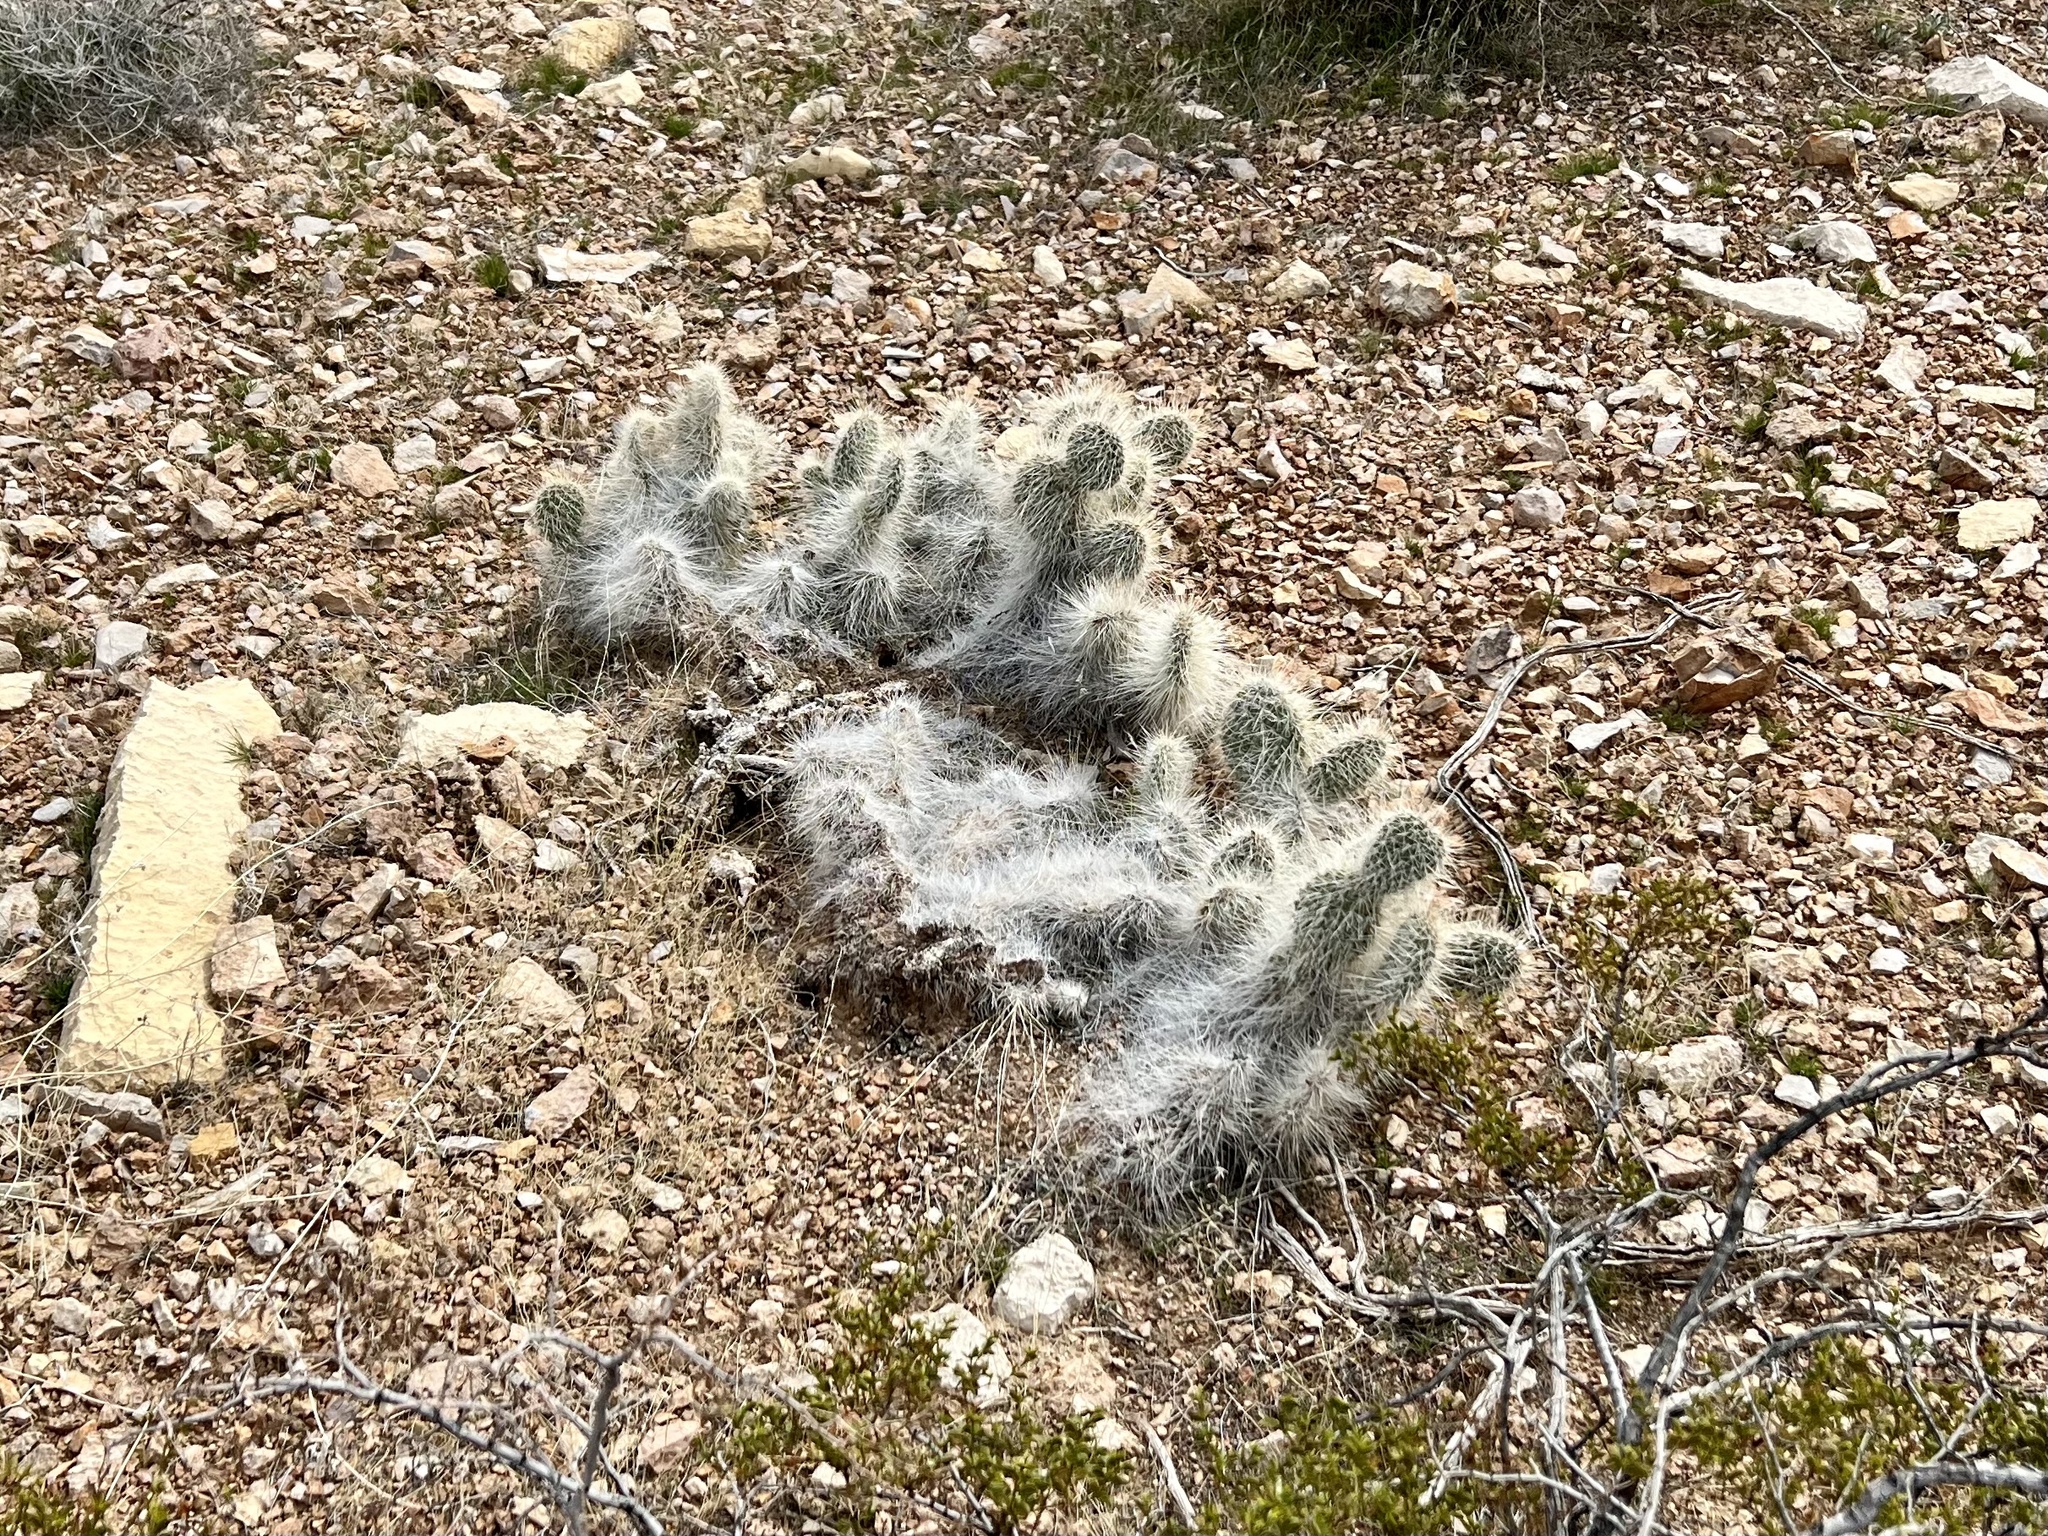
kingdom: Plantae
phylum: Tracheophyta
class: Magnoliopsida
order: Caryophyllales
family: Cactaceae
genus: Opuntia
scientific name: Opuntia polyacantha
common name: Plains prickly-pear
